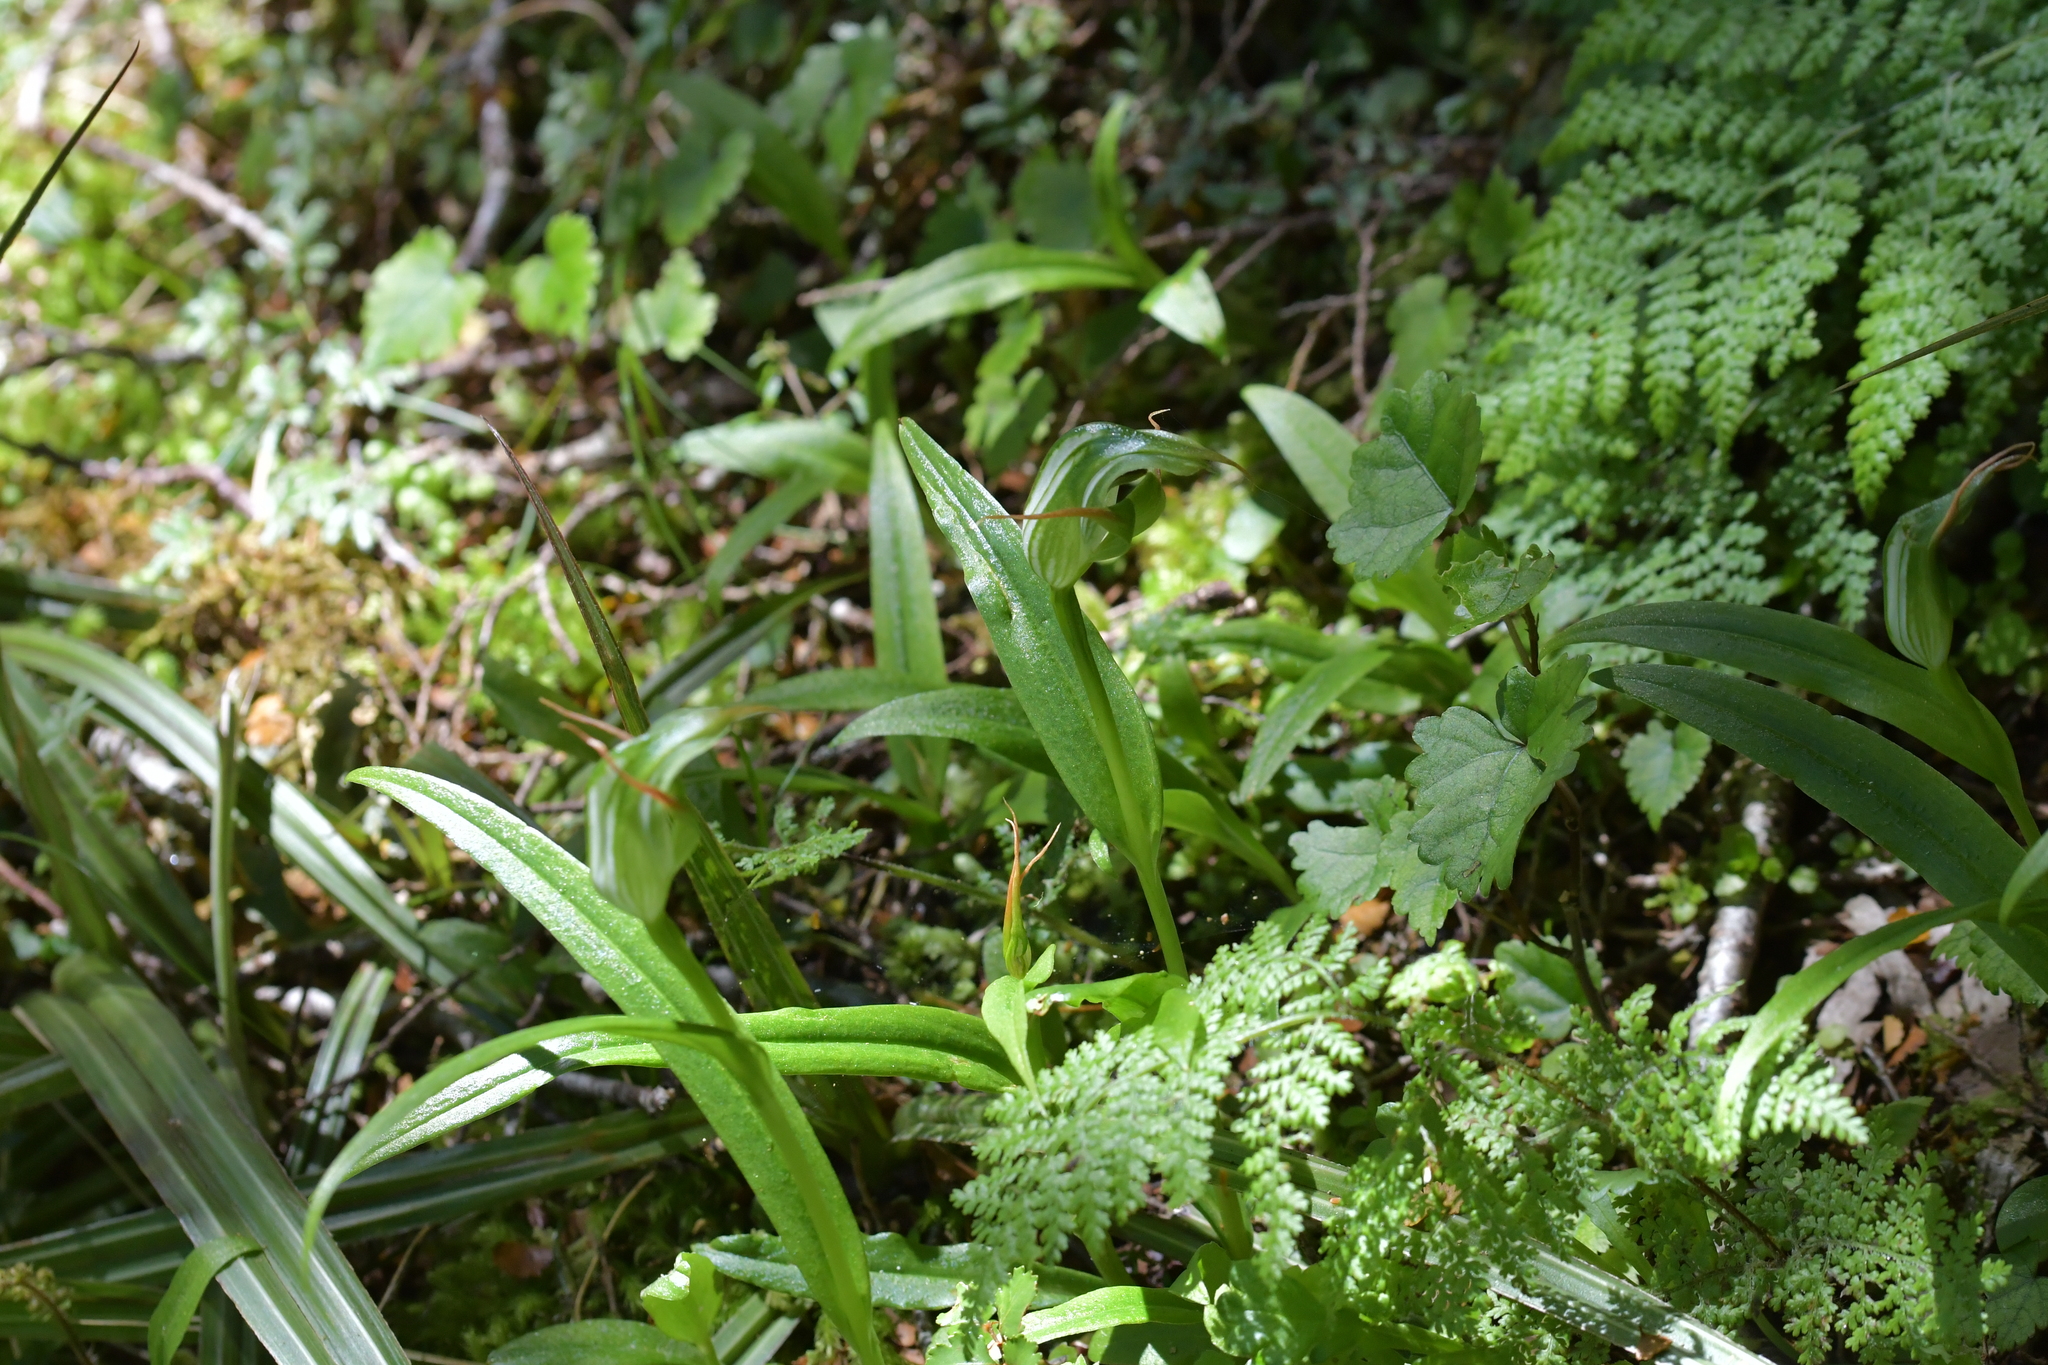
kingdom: Plantae
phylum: Tracheophyta
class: Liliopsida
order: Asparagales
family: Orchidaceae
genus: Pterostylis
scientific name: Pterostylis australis
